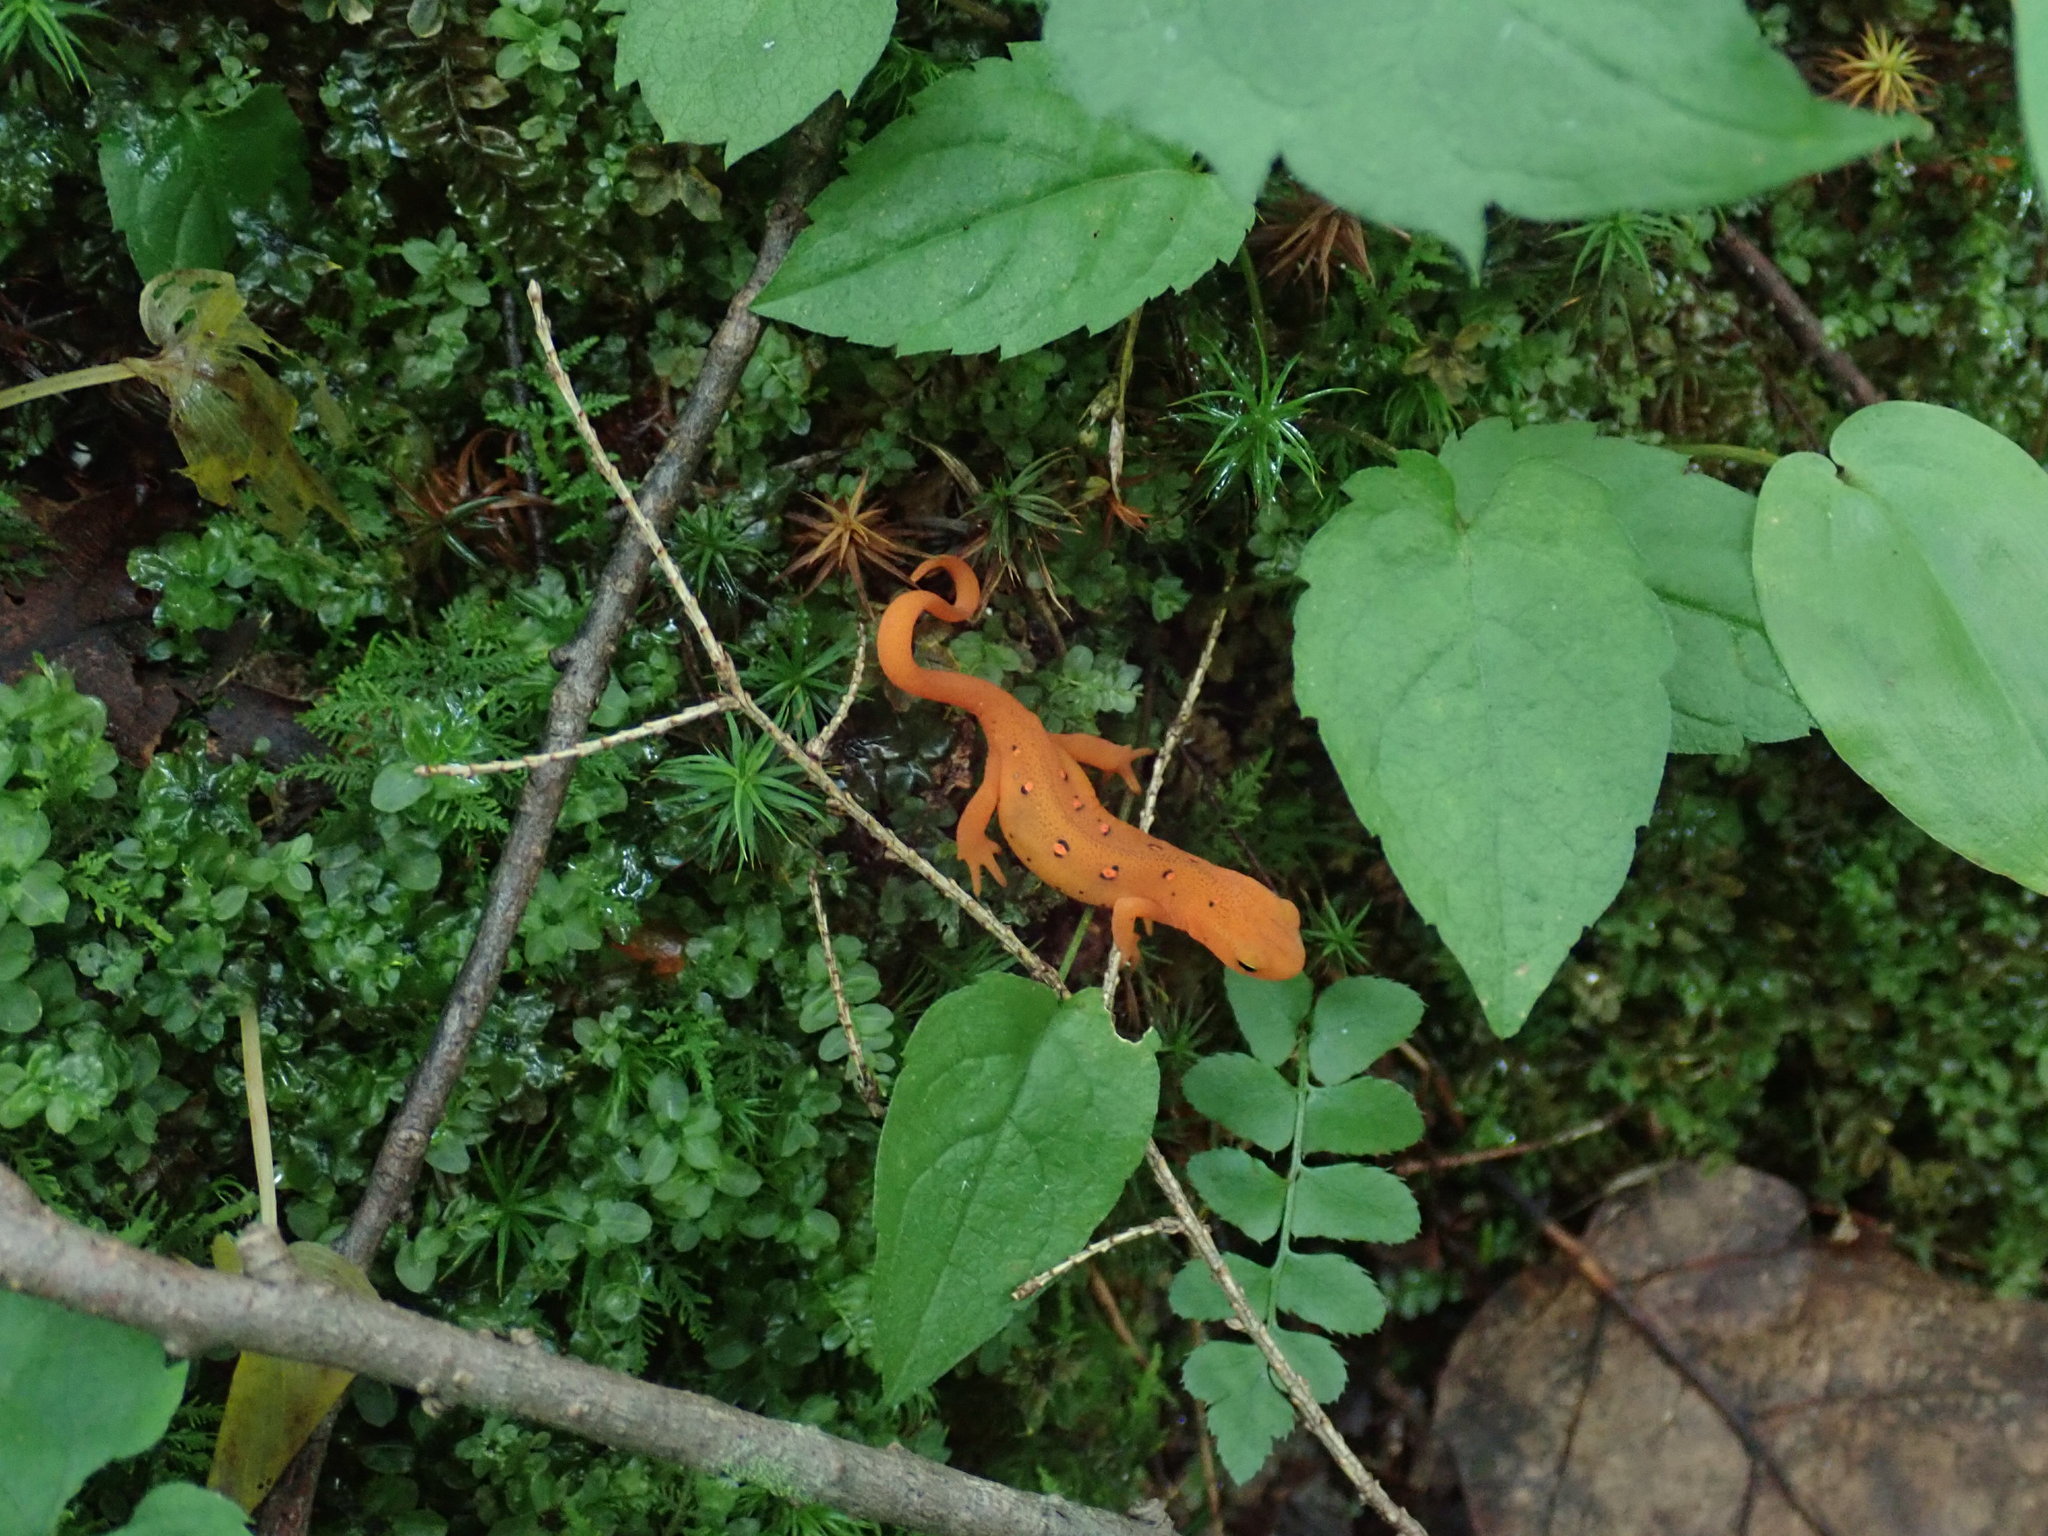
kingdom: Animalia
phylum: Chordata
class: Amphibia
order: Caudata
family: Salamandridae
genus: Notophthalmus
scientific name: Notophthalmus viridescens
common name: Eastern newt
